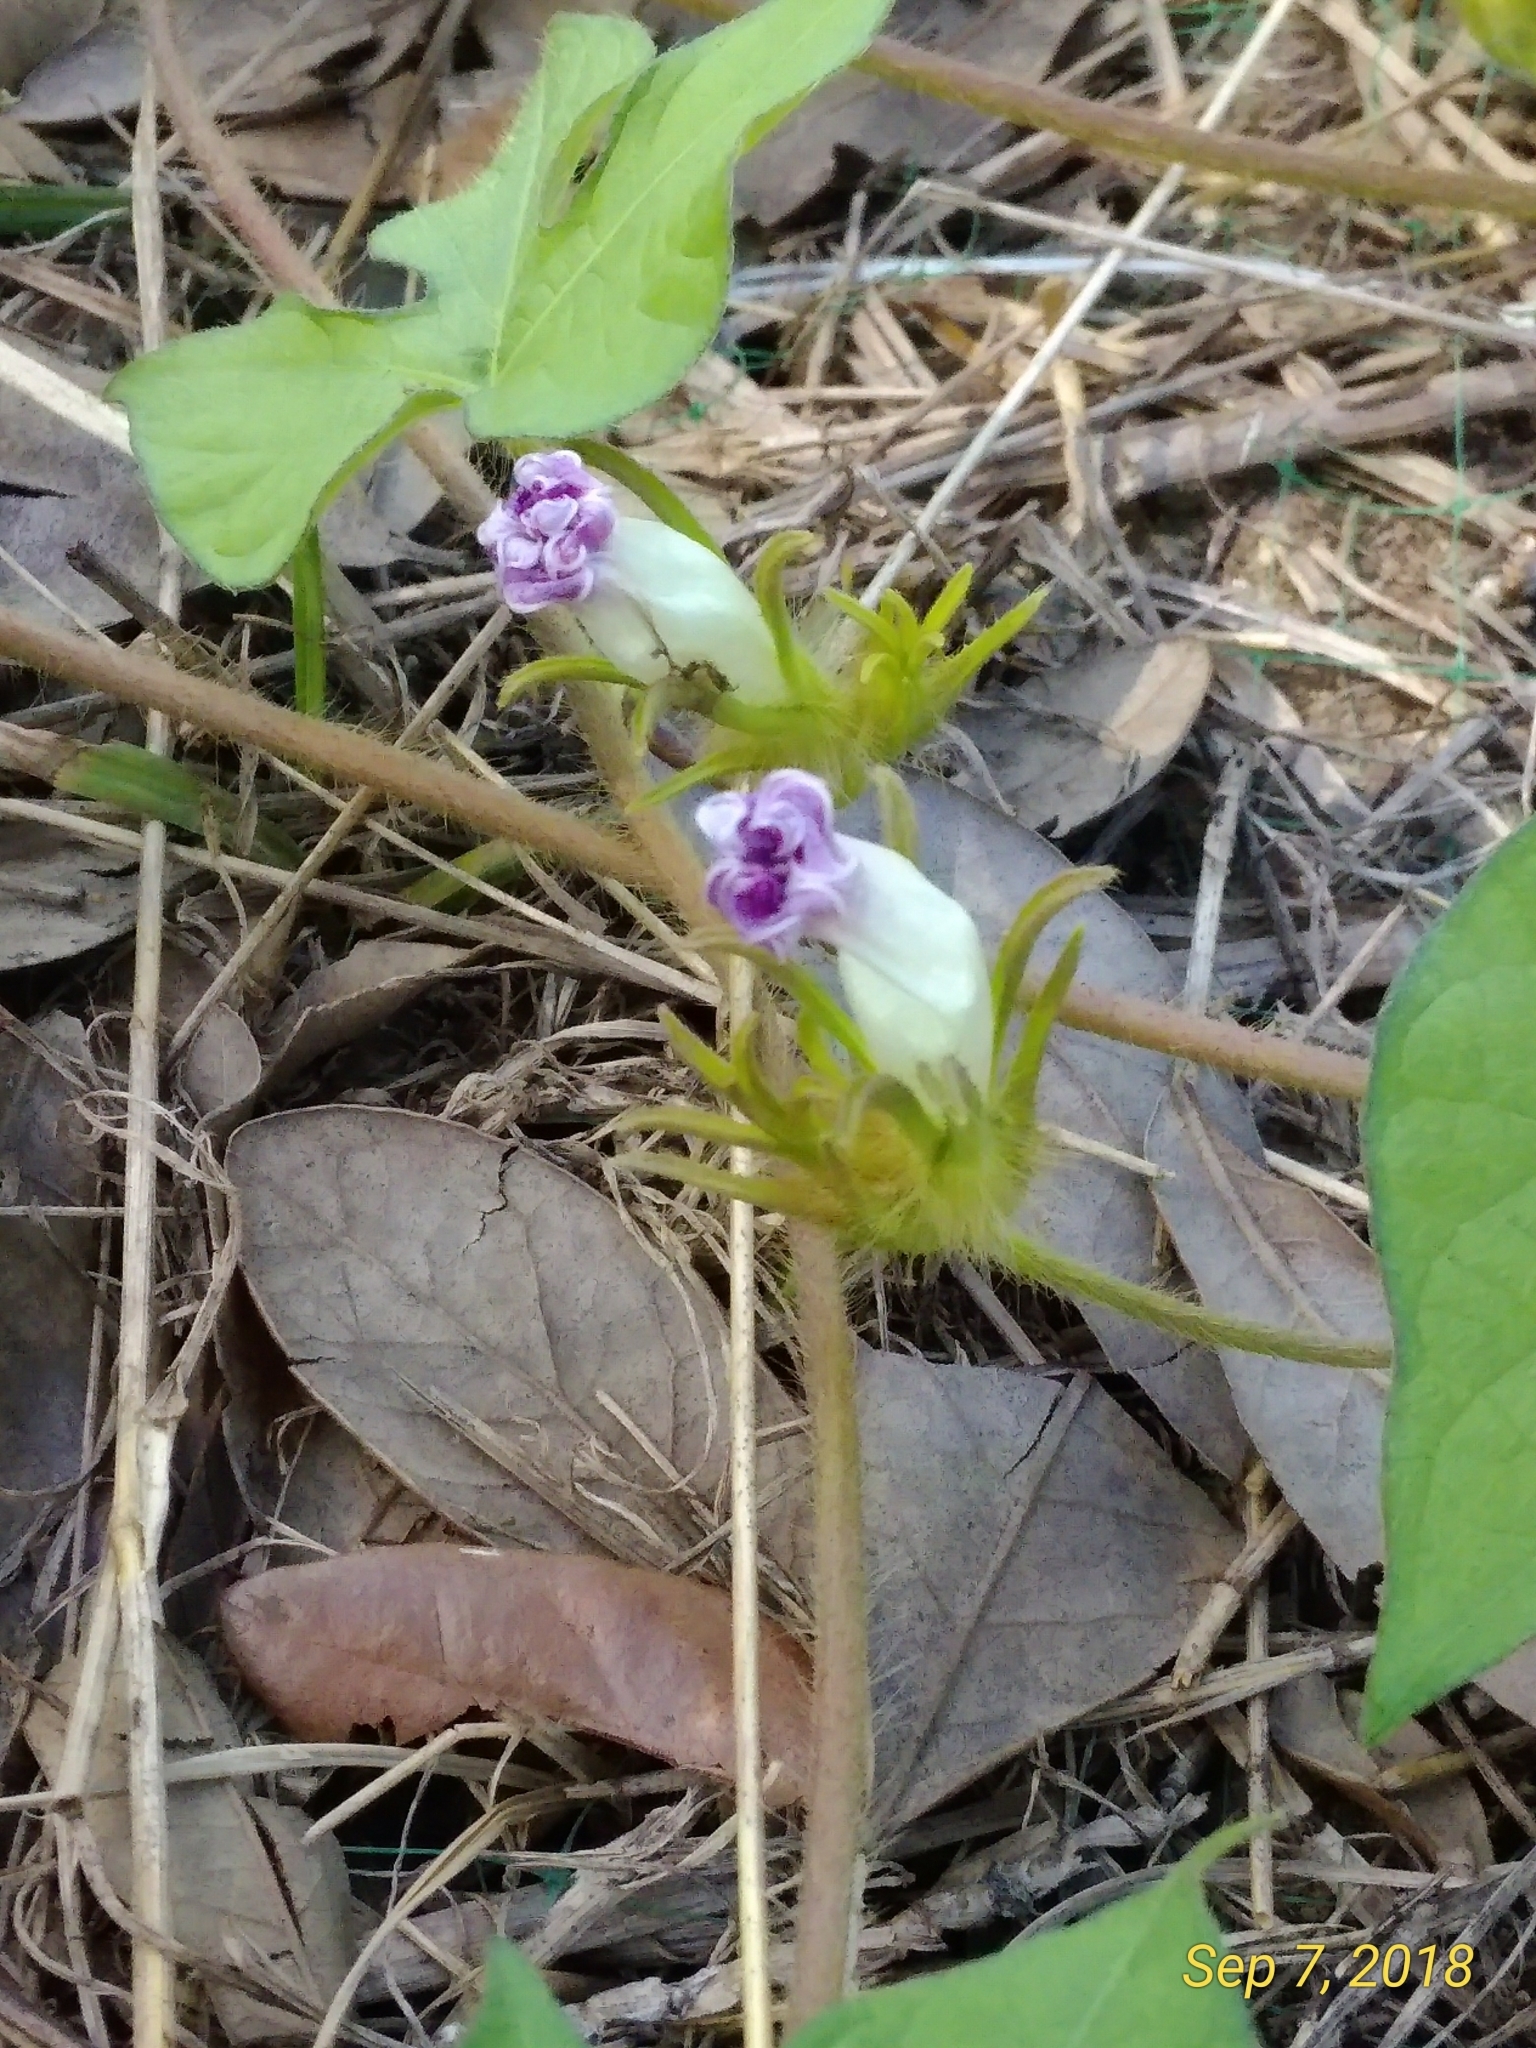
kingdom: Plantae
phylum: Tracheophyta
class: Magnoliopsida
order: Solanales
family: Convolvulaceae
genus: Ipomoea
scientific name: Ipomoea hederacea
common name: Ivy-leaved morning-glory
